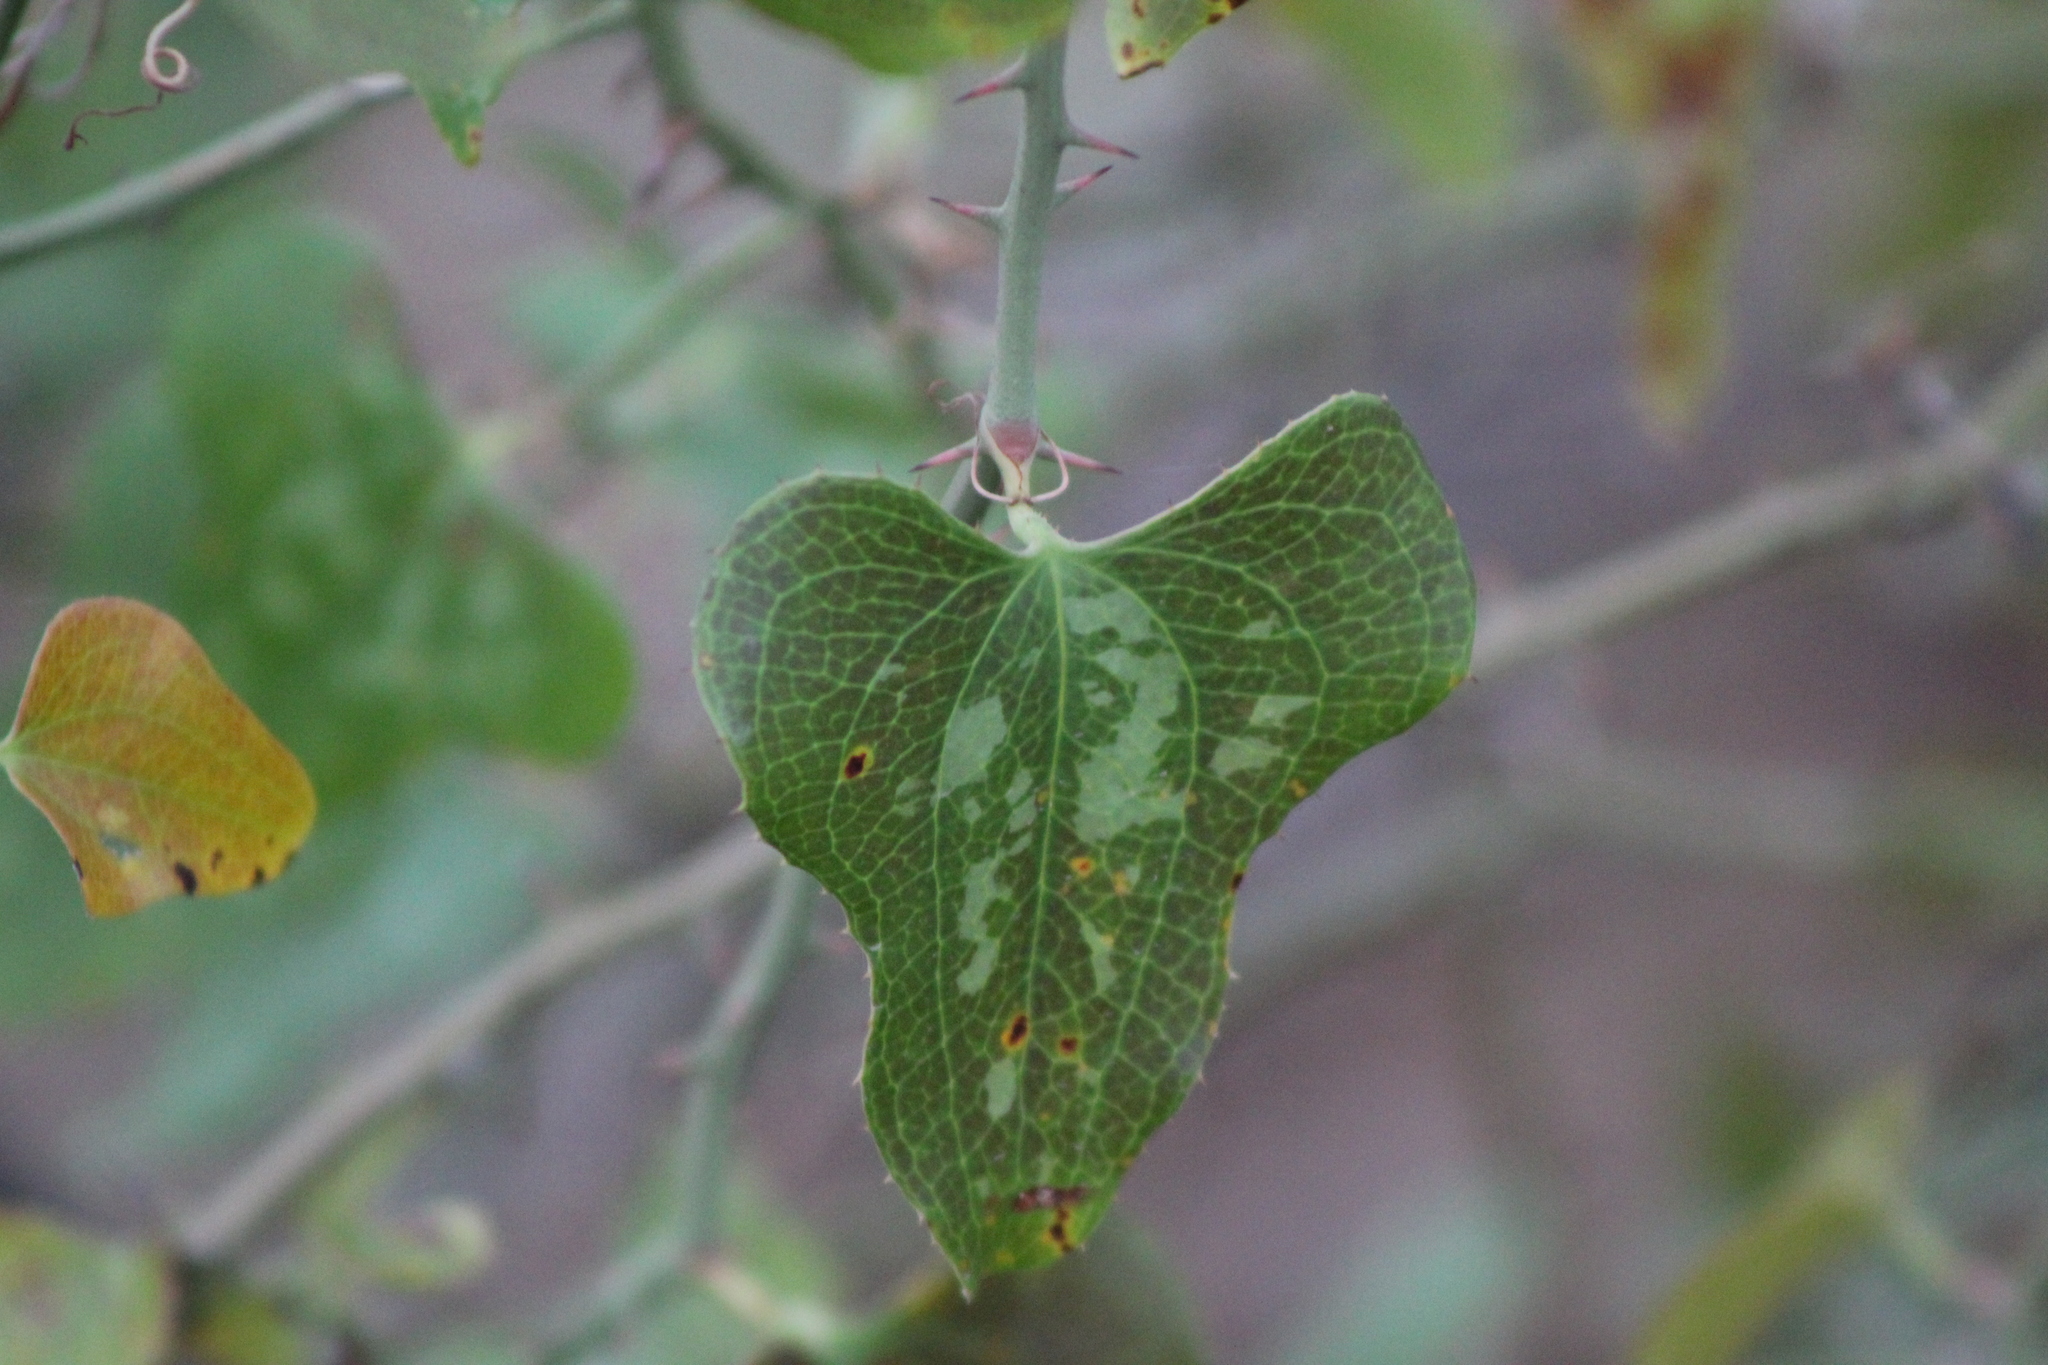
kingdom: Plantae
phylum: Tracheophyta
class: Liliopsida
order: Liliales
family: Smilacaceae
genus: Smilax
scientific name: Smilax bona-nox
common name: Catbrier
